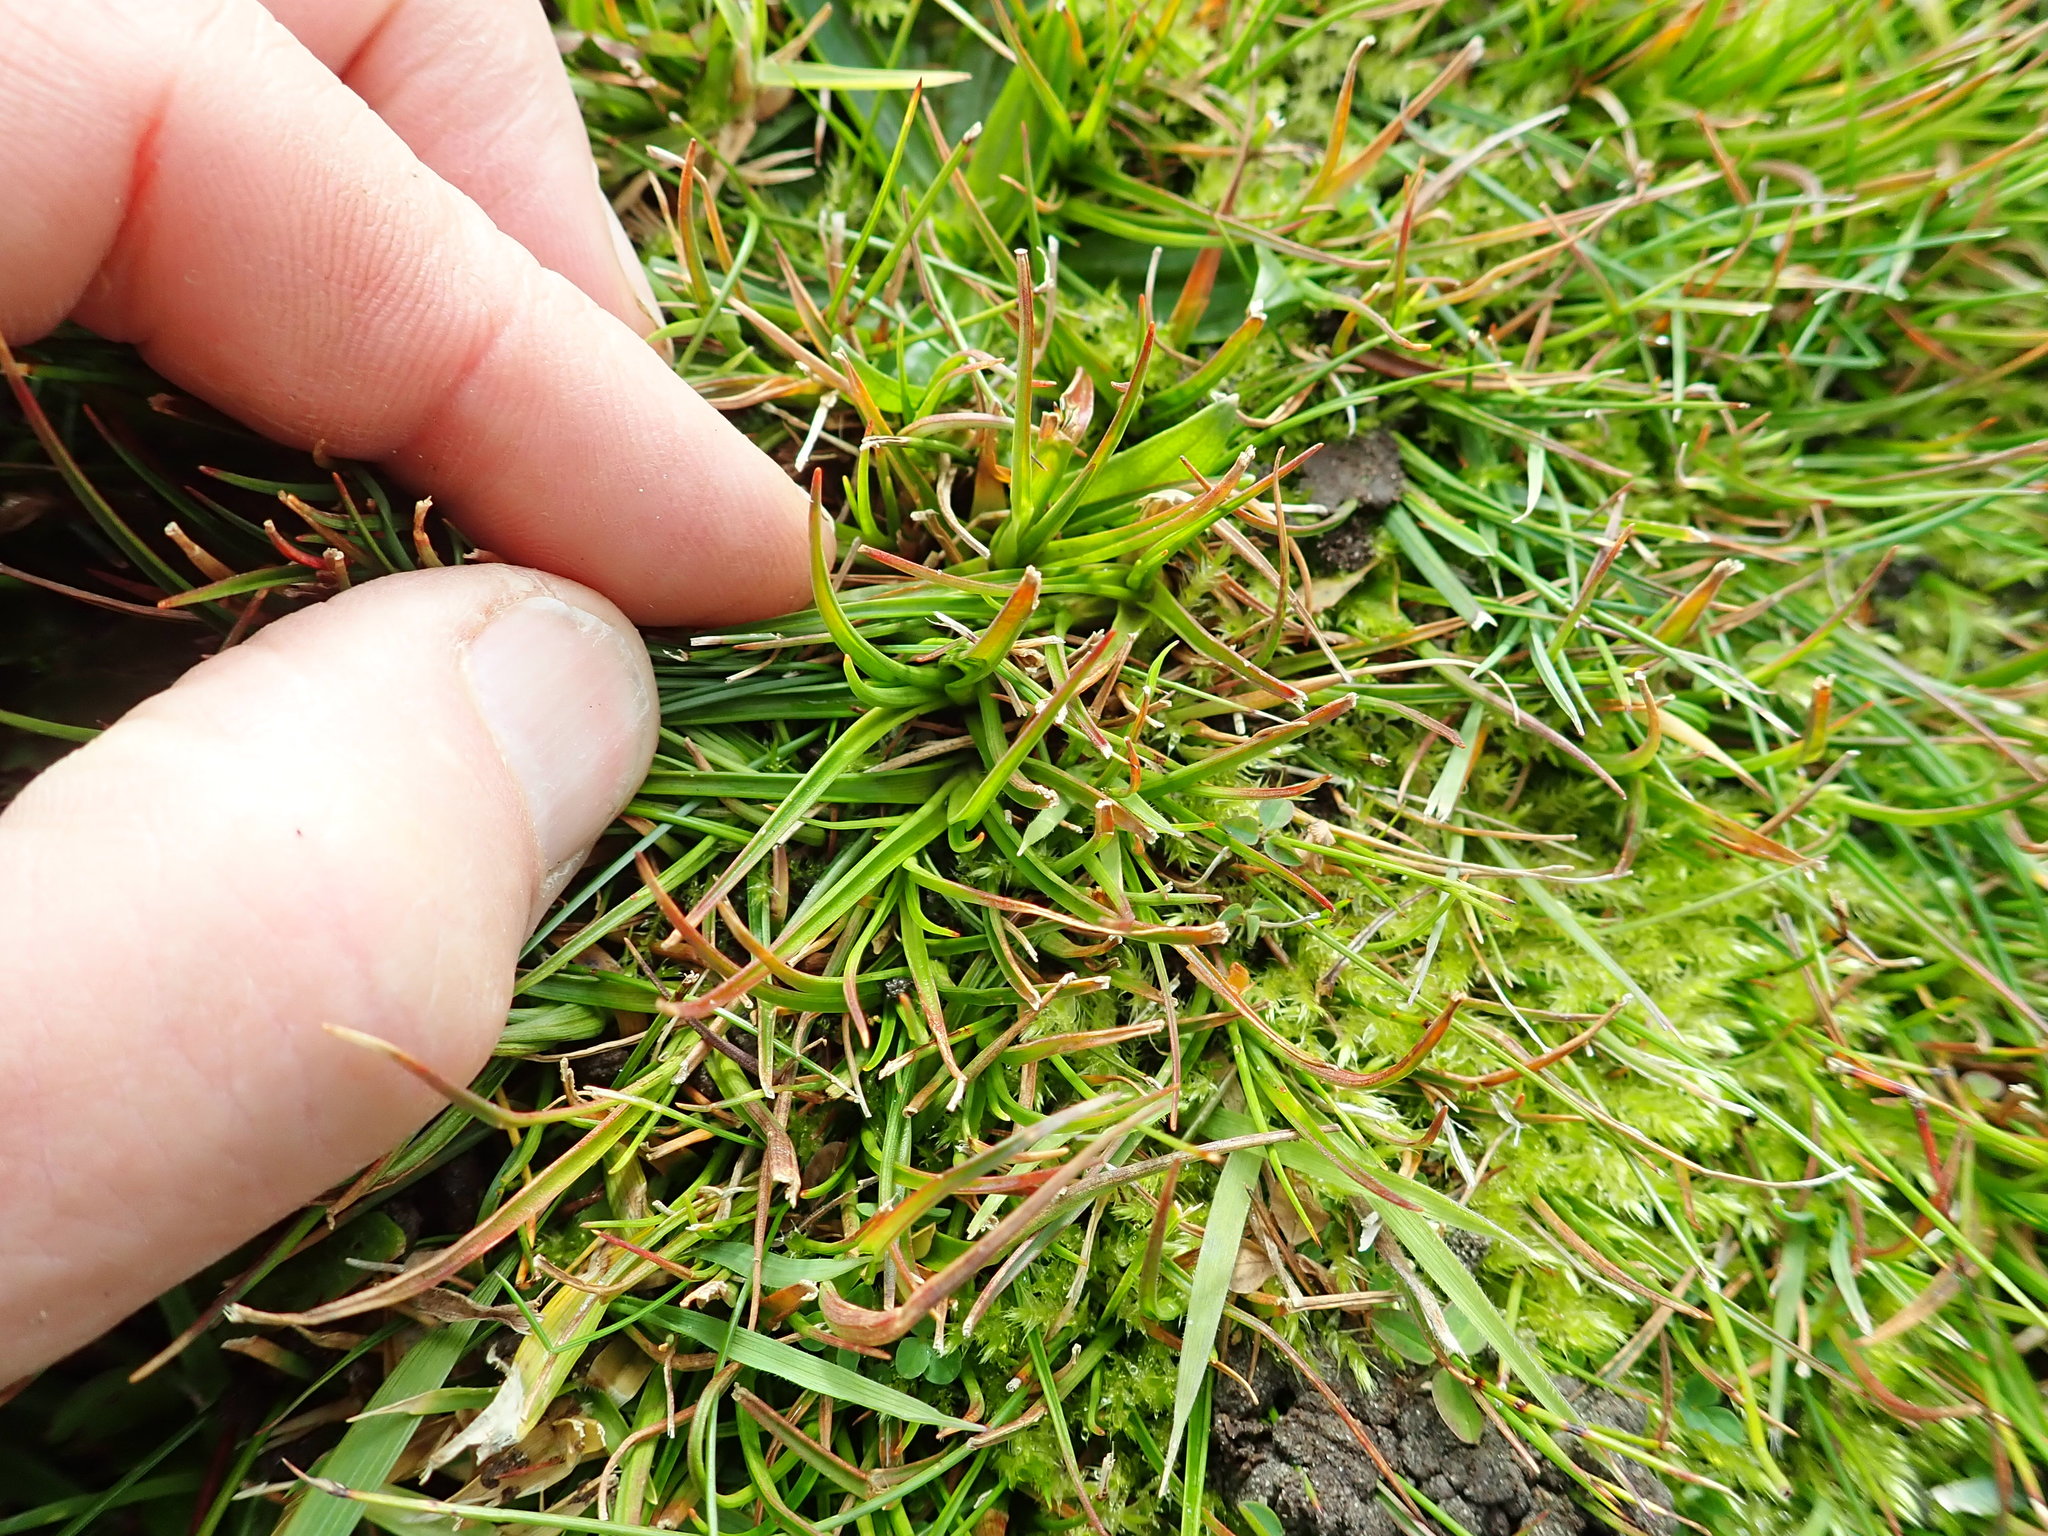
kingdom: Plantae
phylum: Tracheophyta
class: Liliopsida
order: Poales
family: Juncaceae
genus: Juncus
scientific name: Juncus caespiticius
